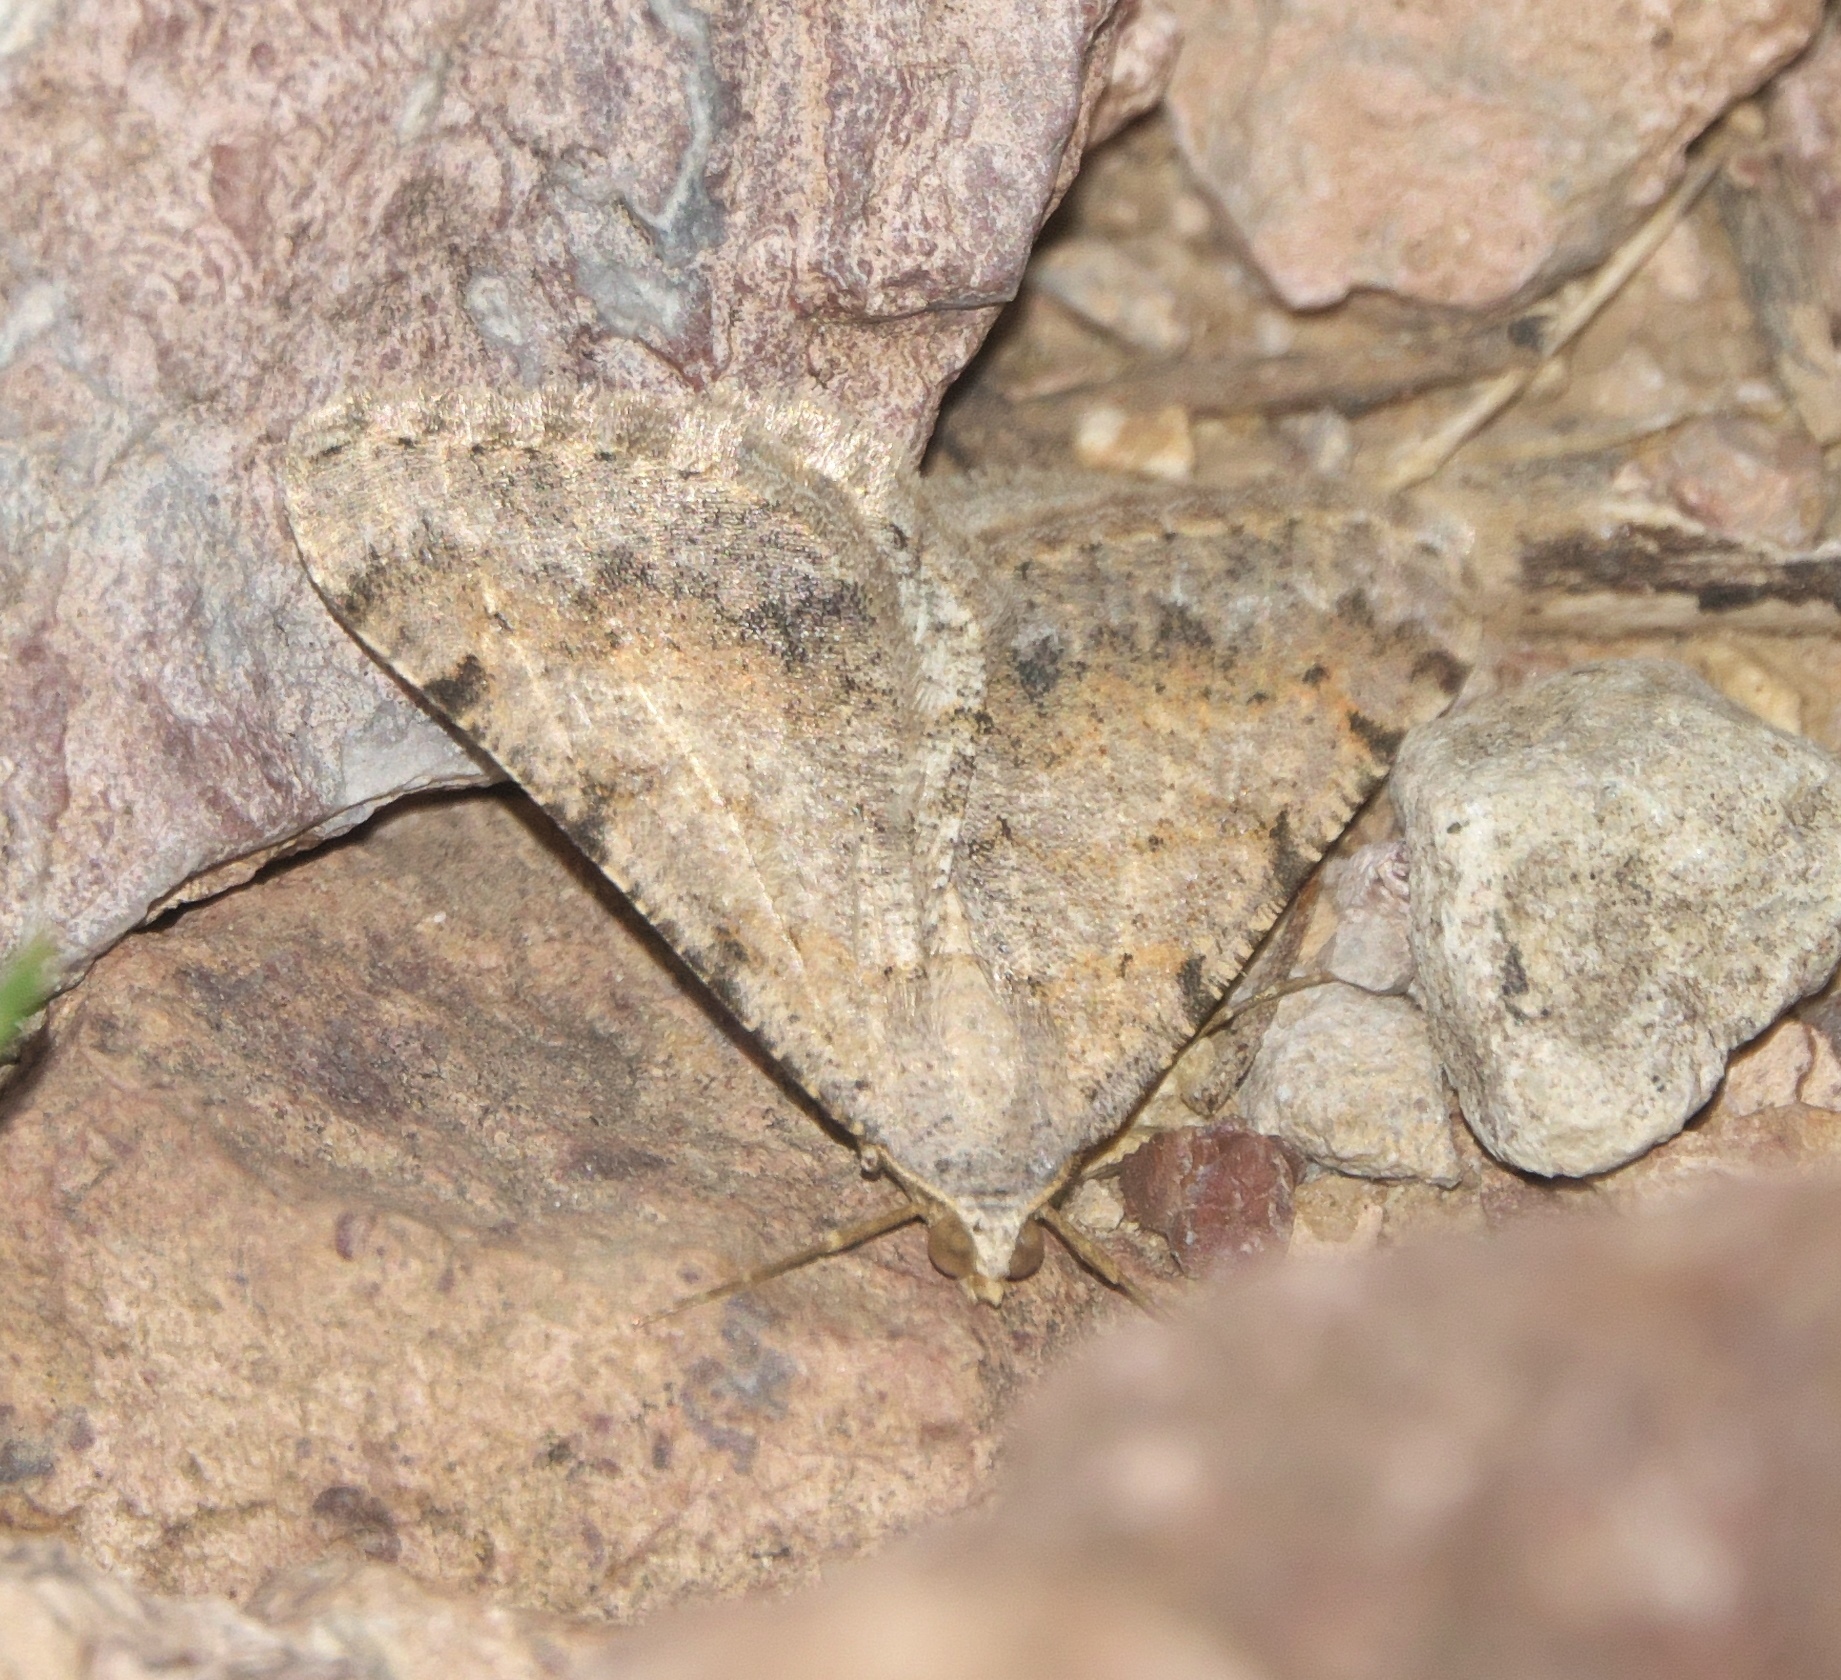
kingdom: Animalia
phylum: Arthropoda
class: Insecta
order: Lepidoptera
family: Geometridae
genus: Digrammia
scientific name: Digrammia colorata
